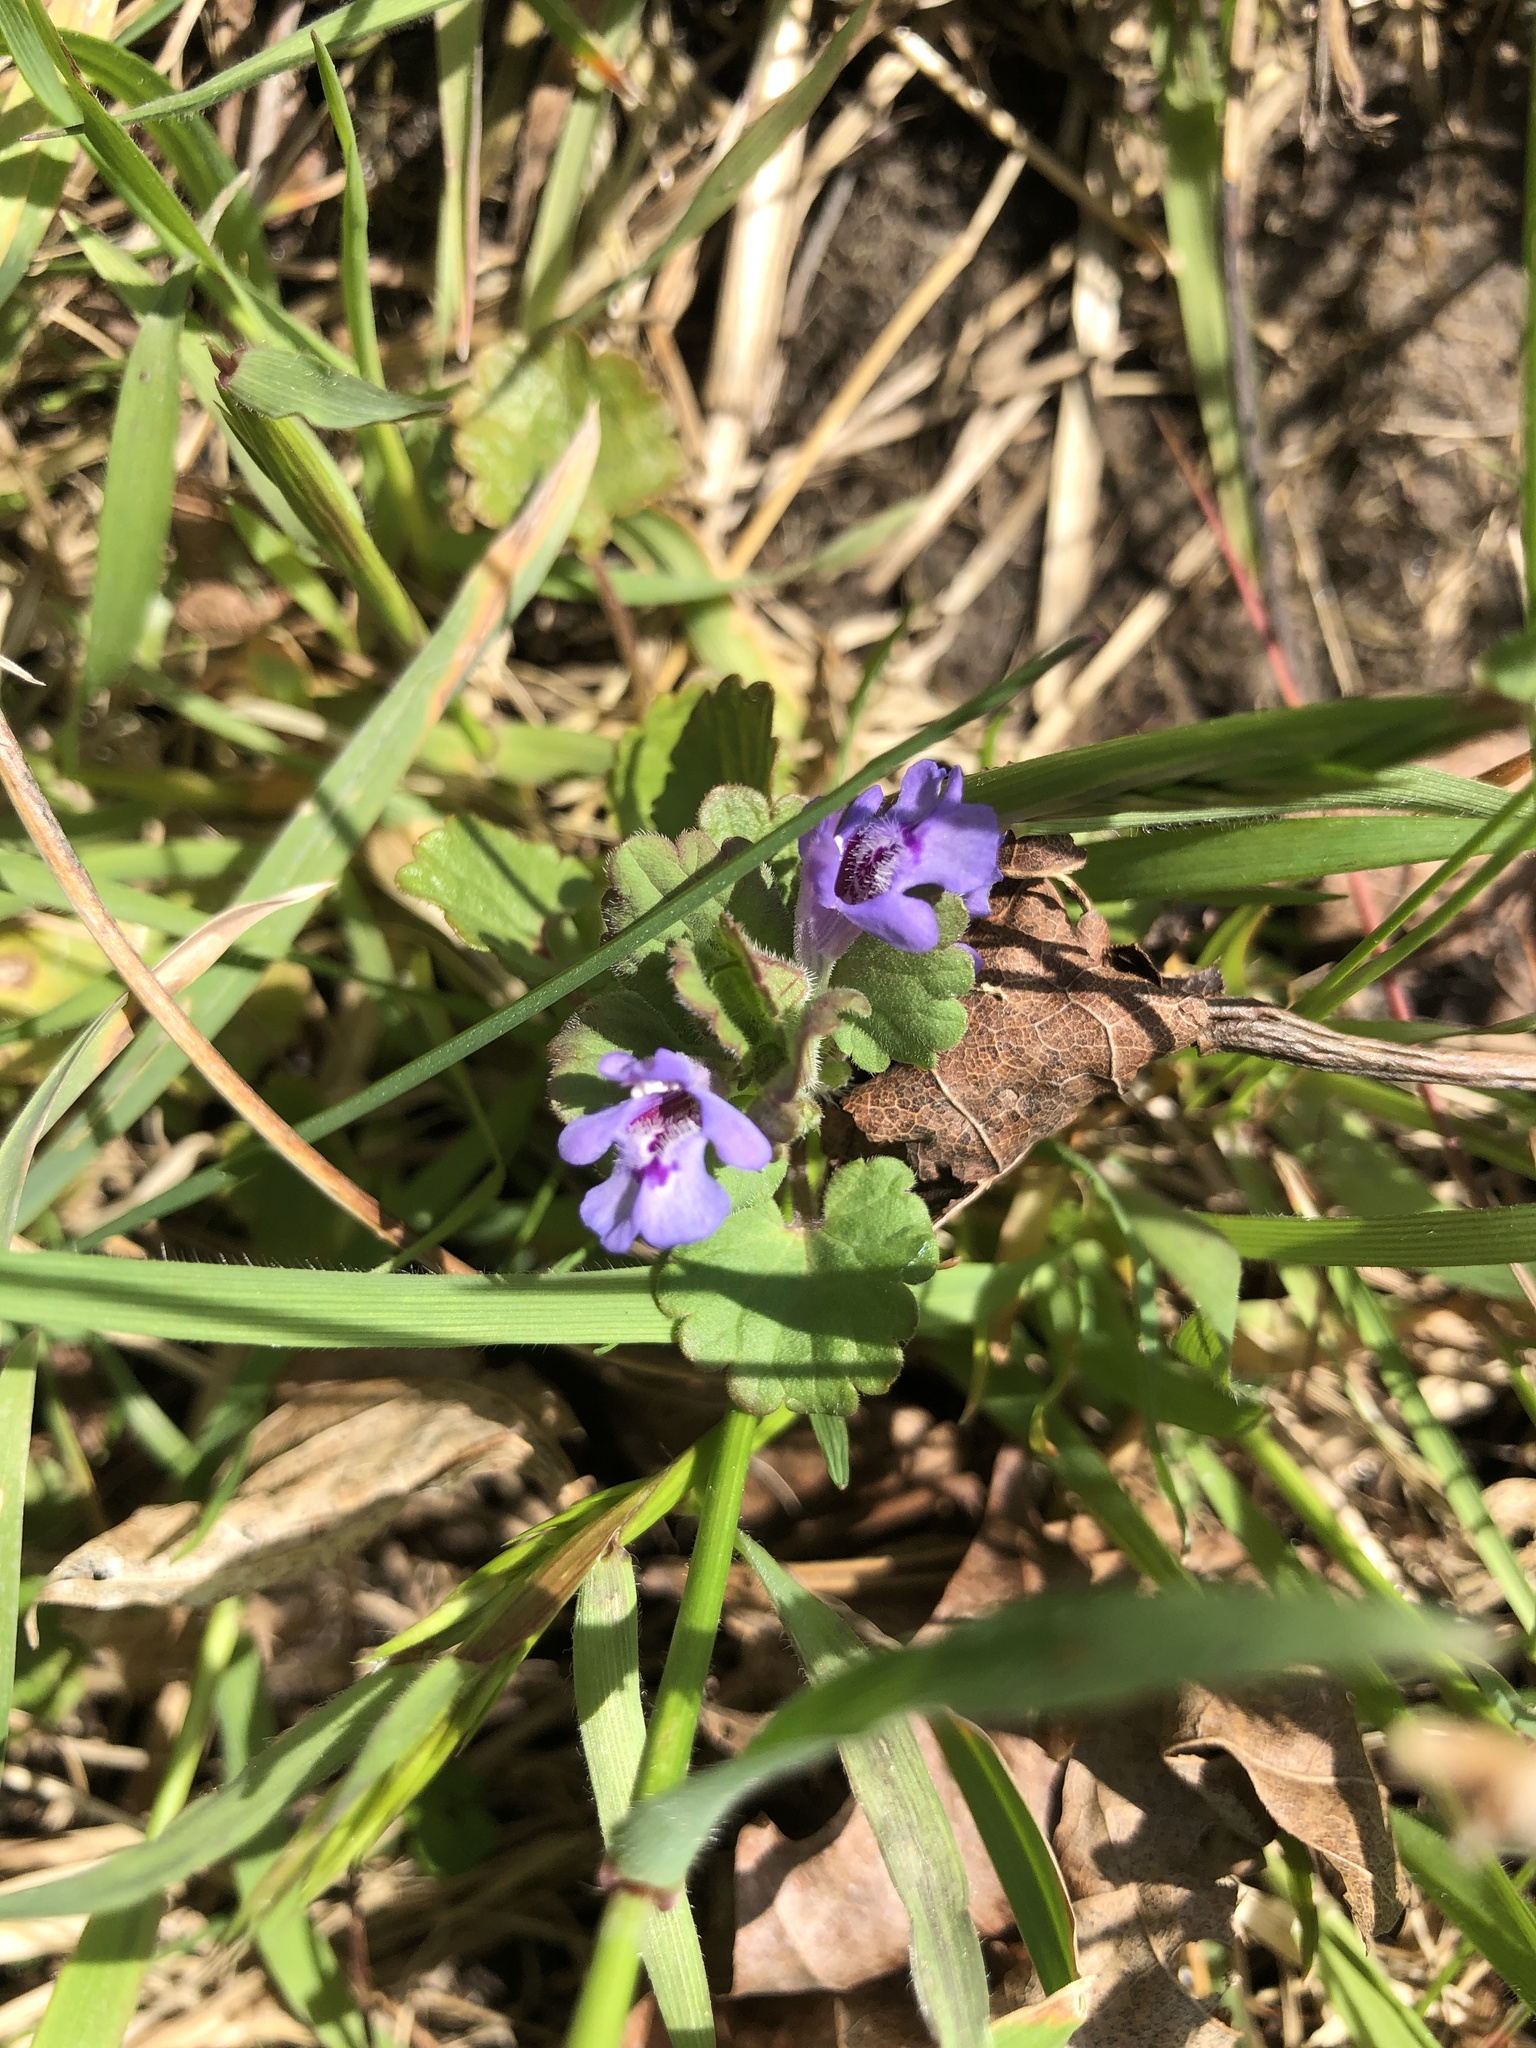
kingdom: Plantae
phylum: Tracheophyta
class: Magnoliopsida
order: Lamiales
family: Lamiaceae
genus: Glechoma
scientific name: Glechoma hederacea
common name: Ground ivy
